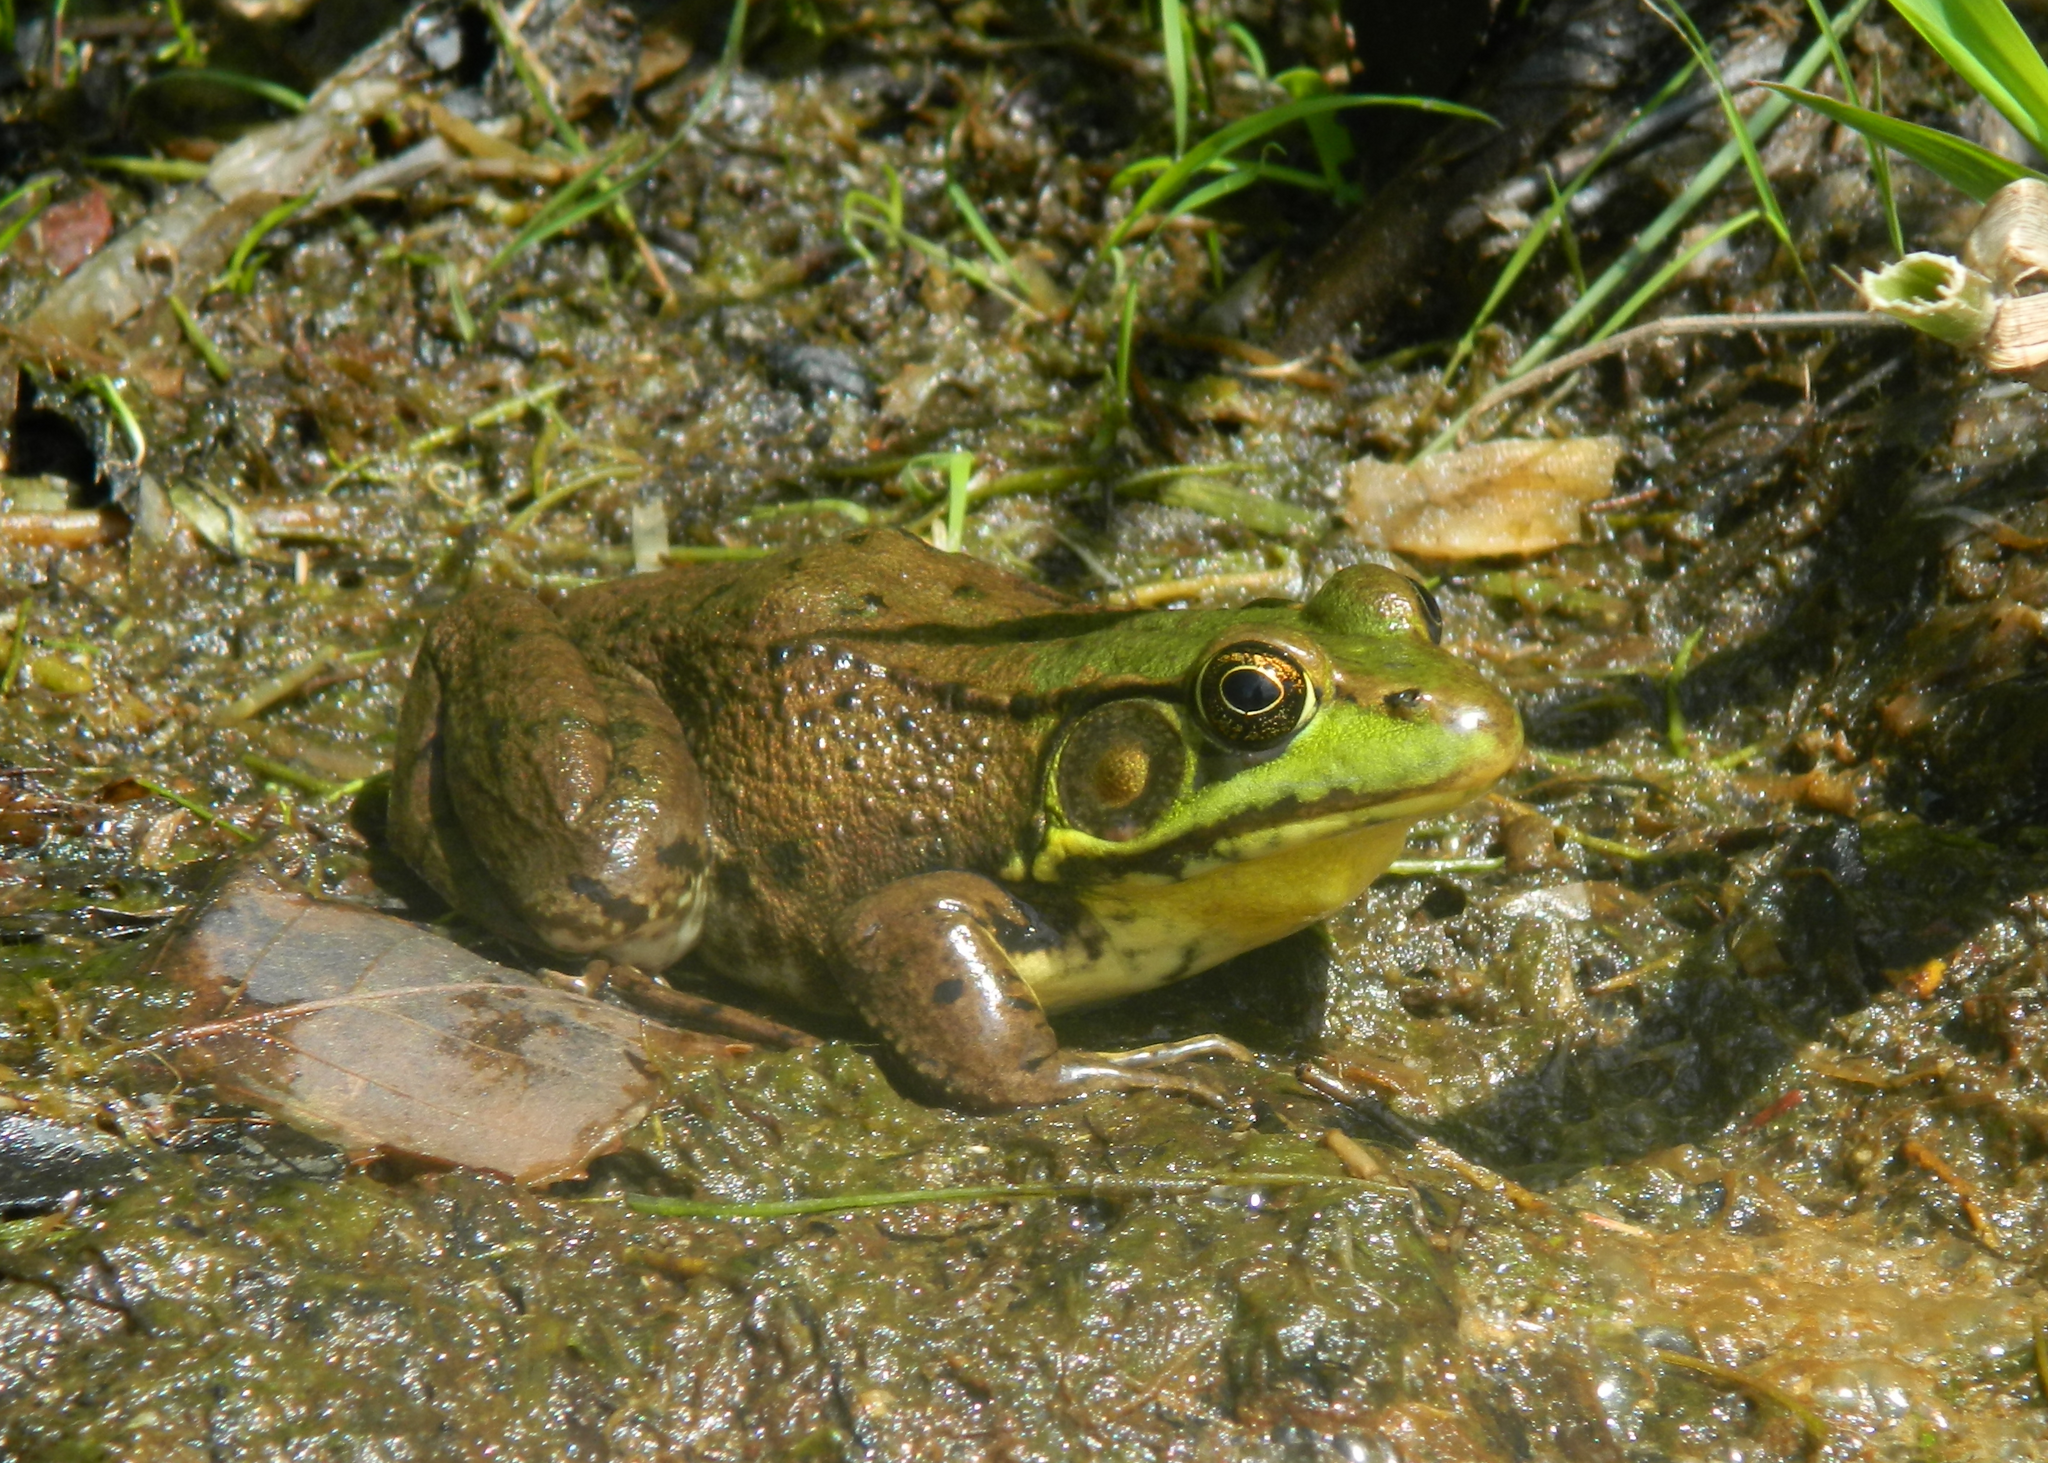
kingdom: Animalia
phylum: Chordata
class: Amphibia
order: Anura
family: Ranidae
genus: Lithobates
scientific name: Lithobates clamitans
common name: Green frog
